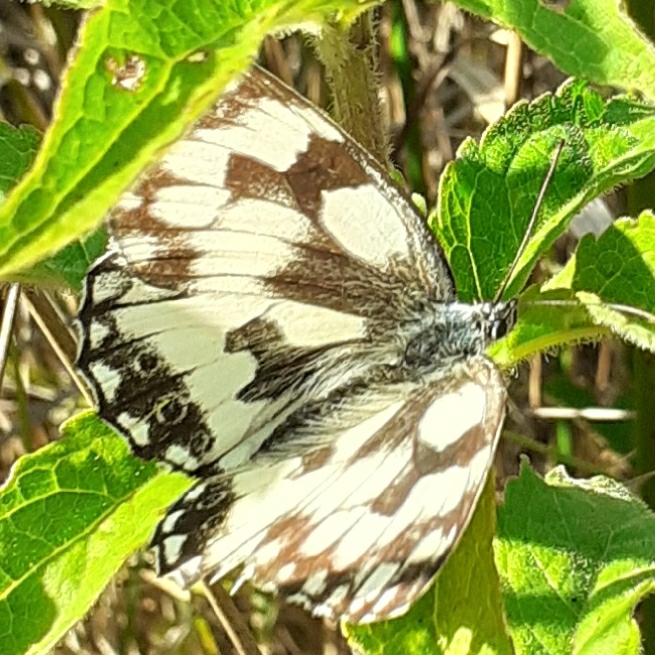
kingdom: Animalia
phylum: Arthropoda
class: Insecta
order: Lepidoptera
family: Nymphalidae
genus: Melanargia
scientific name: Melanargia galathea
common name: Marbled white
